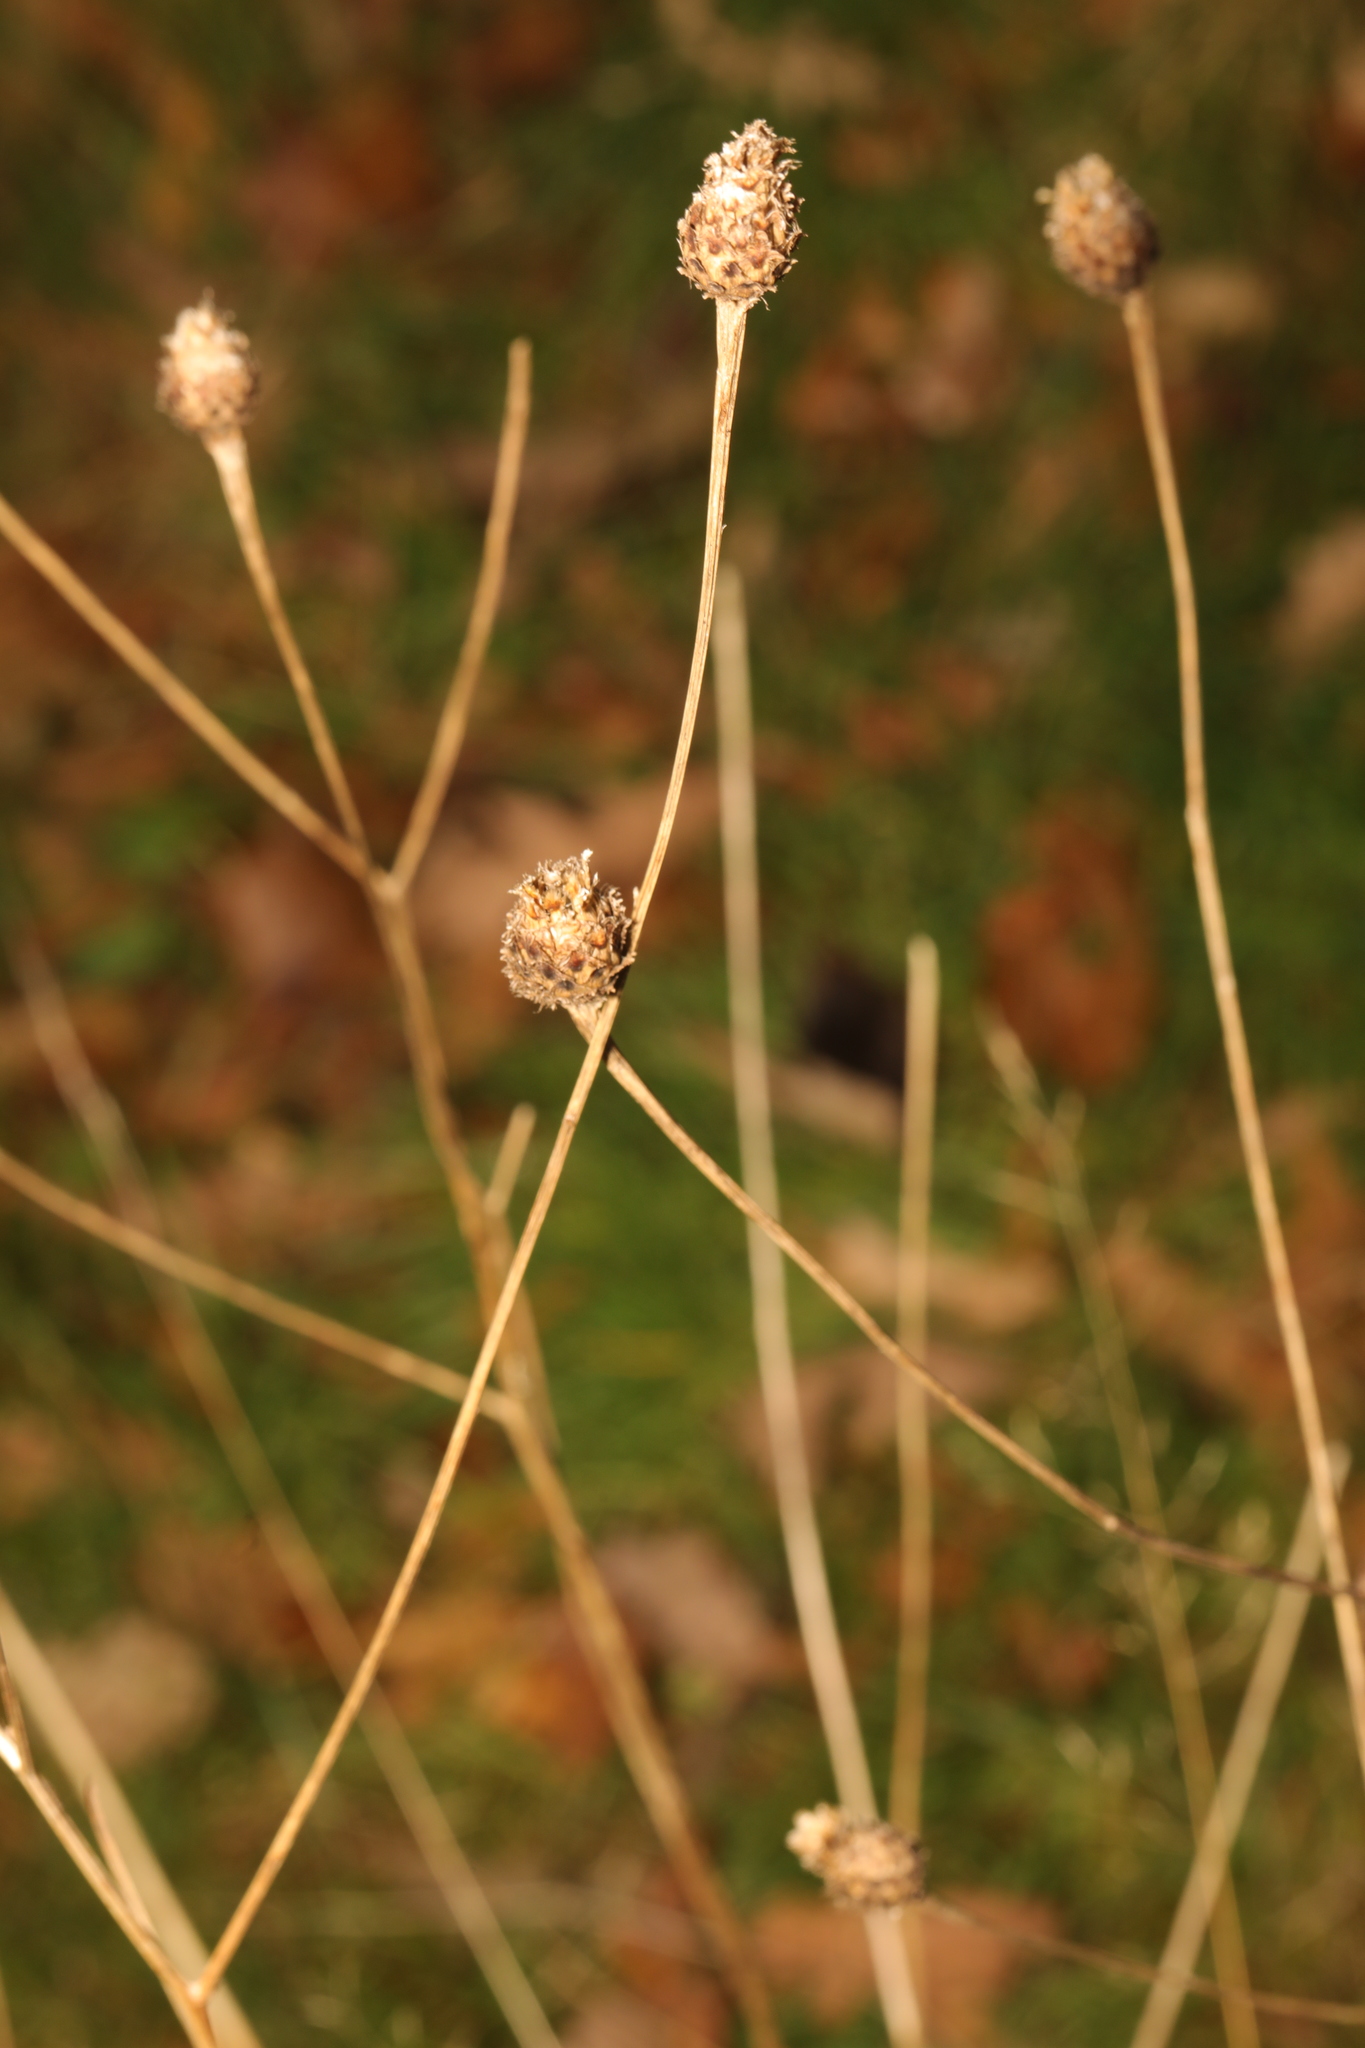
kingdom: Plantae
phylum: Tracheophyta
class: Magnoliopsida
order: Asterales
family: Asteraceae
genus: Centaurea
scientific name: Centaurea nigra
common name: Lesser knapweed
